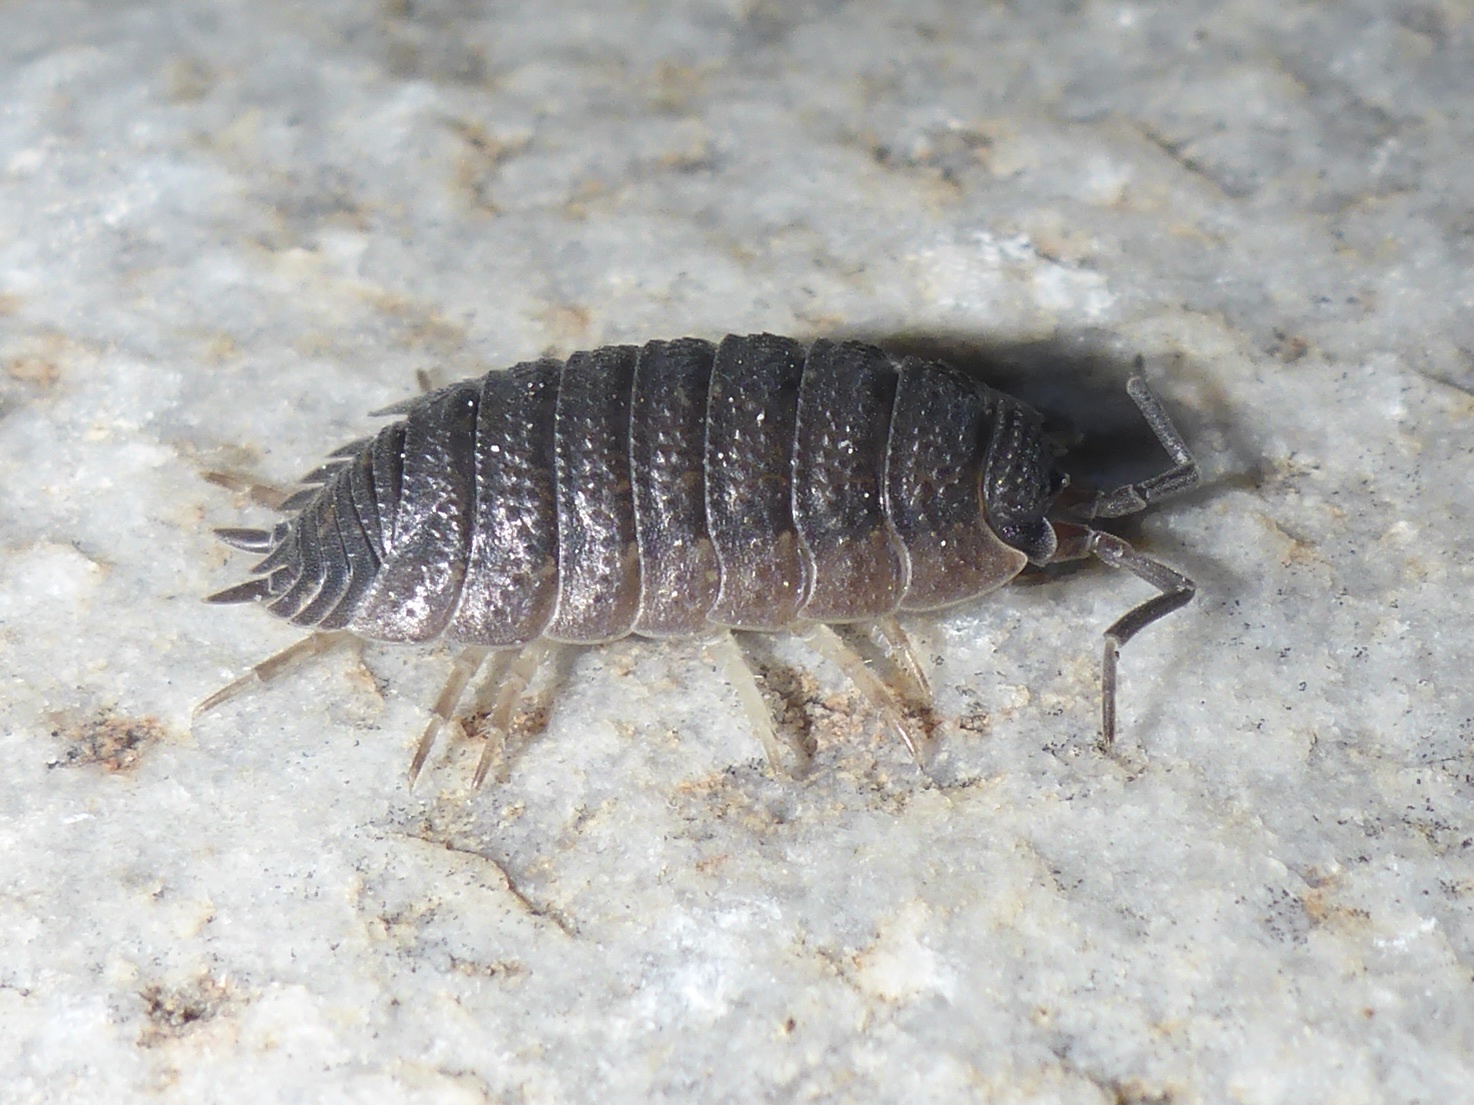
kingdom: Animalia
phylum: Arthropoda
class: Malacostraca
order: Isopoda
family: Porcellionidae
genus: Porcellio
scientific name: Porcellio scaber
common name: Common rough woodlouse
